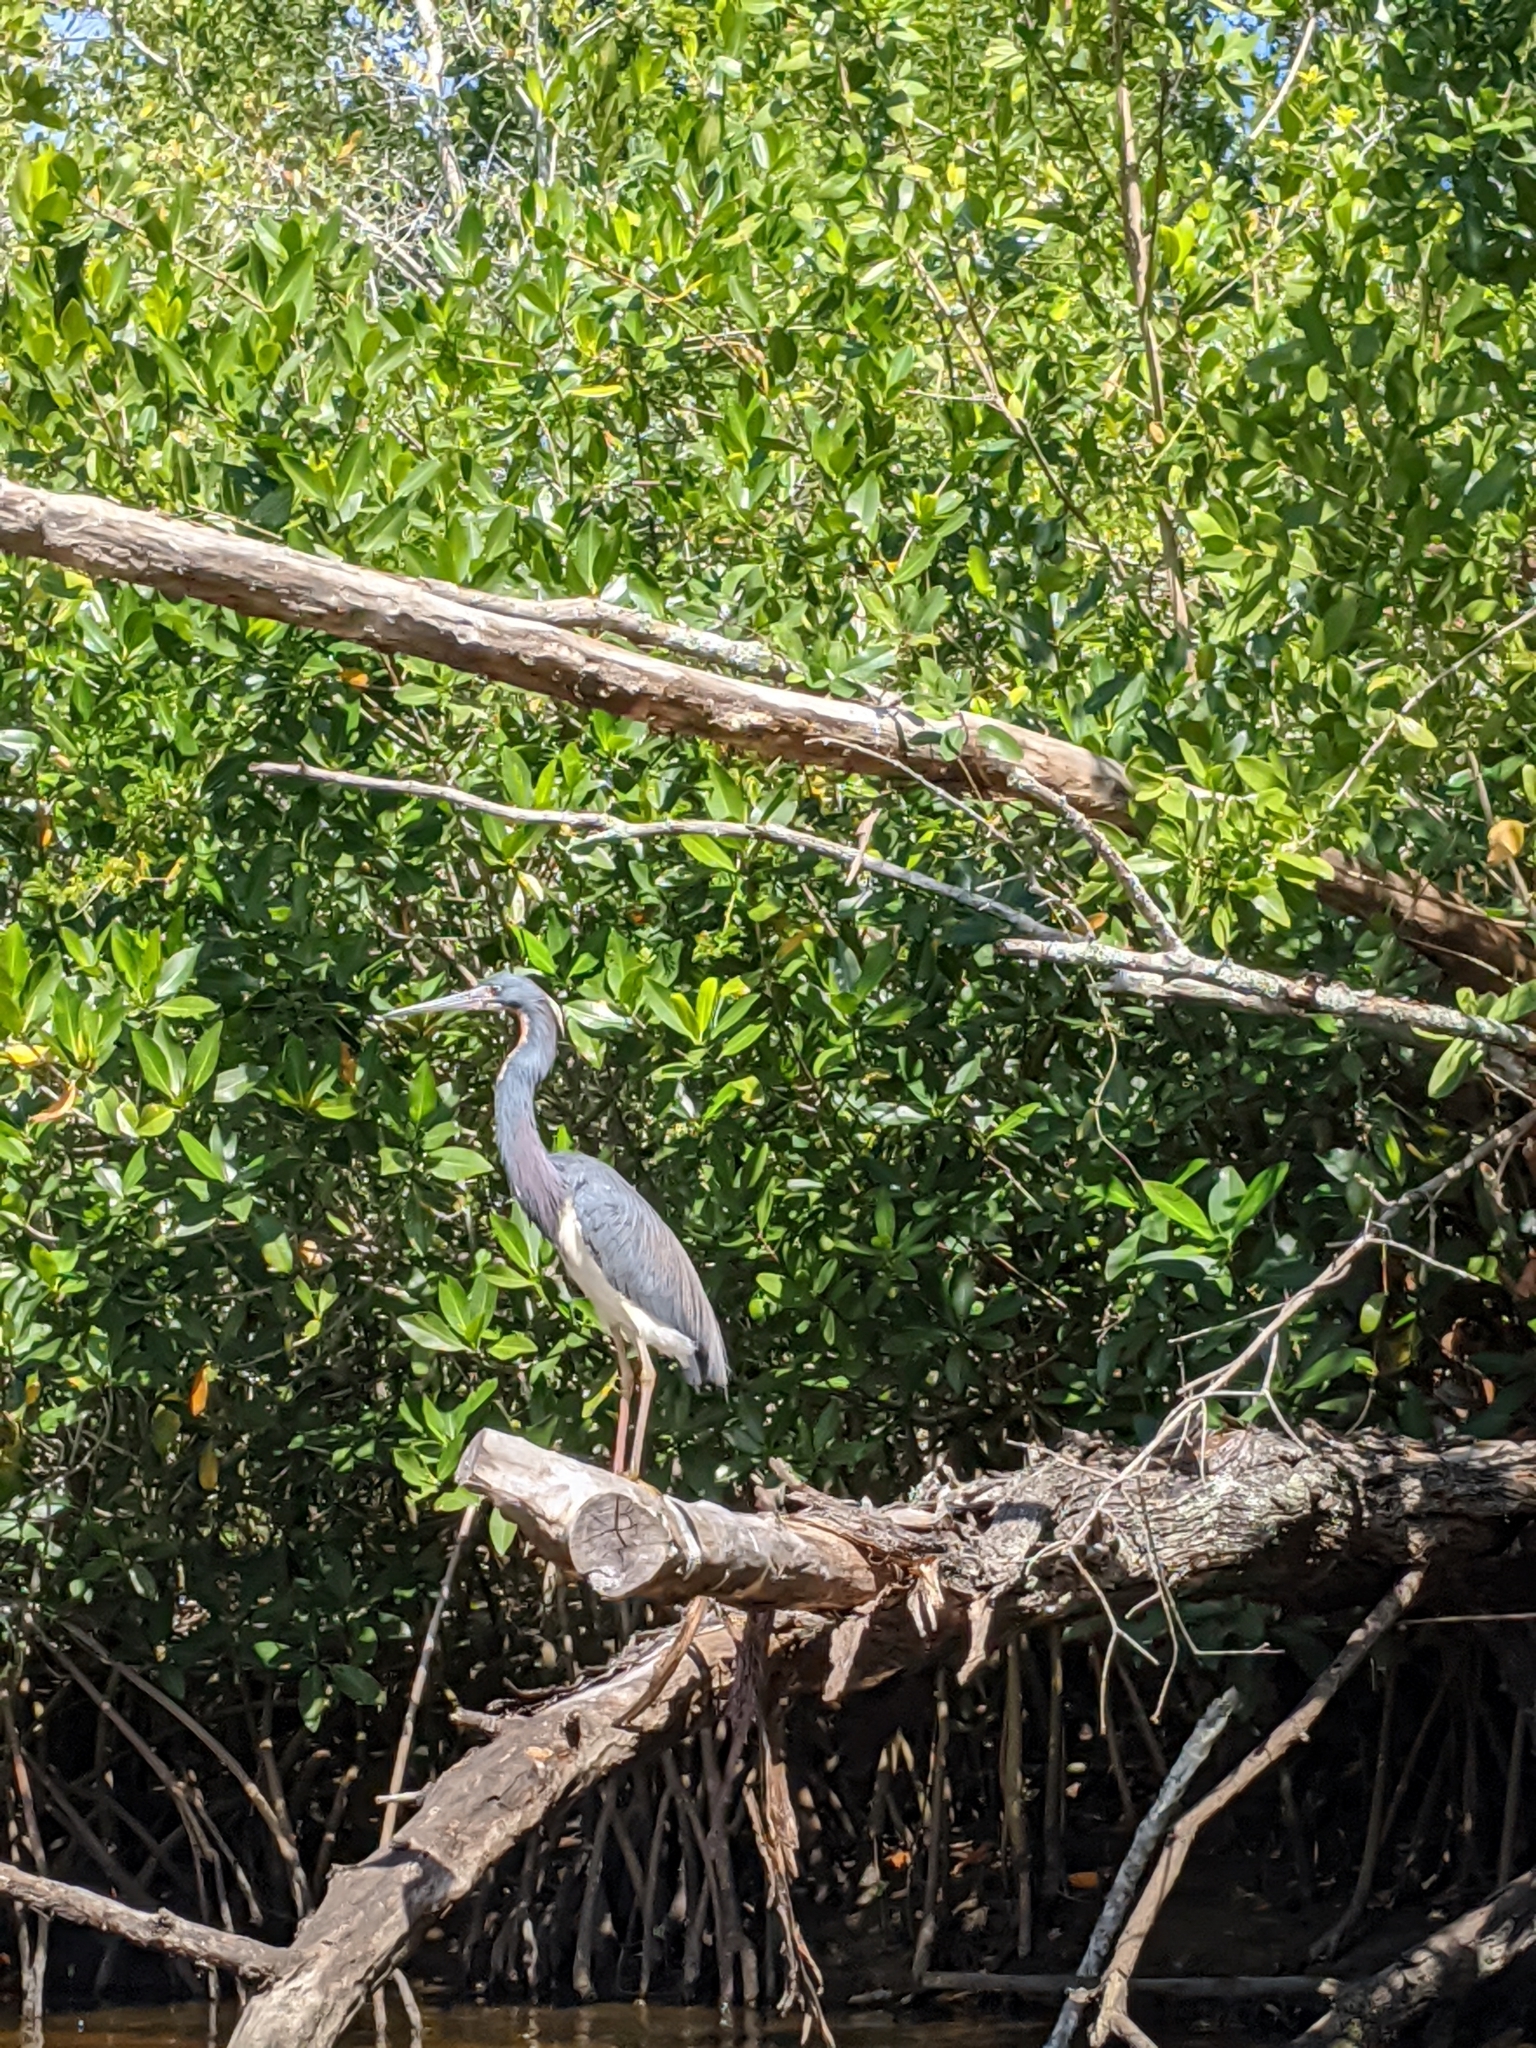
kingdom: Animalia
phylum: Chordata
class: Aves
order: Pelecaniformes
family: Ardeidae
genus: Egretta
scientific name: Egretta tricolor
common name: Tricolored heron
